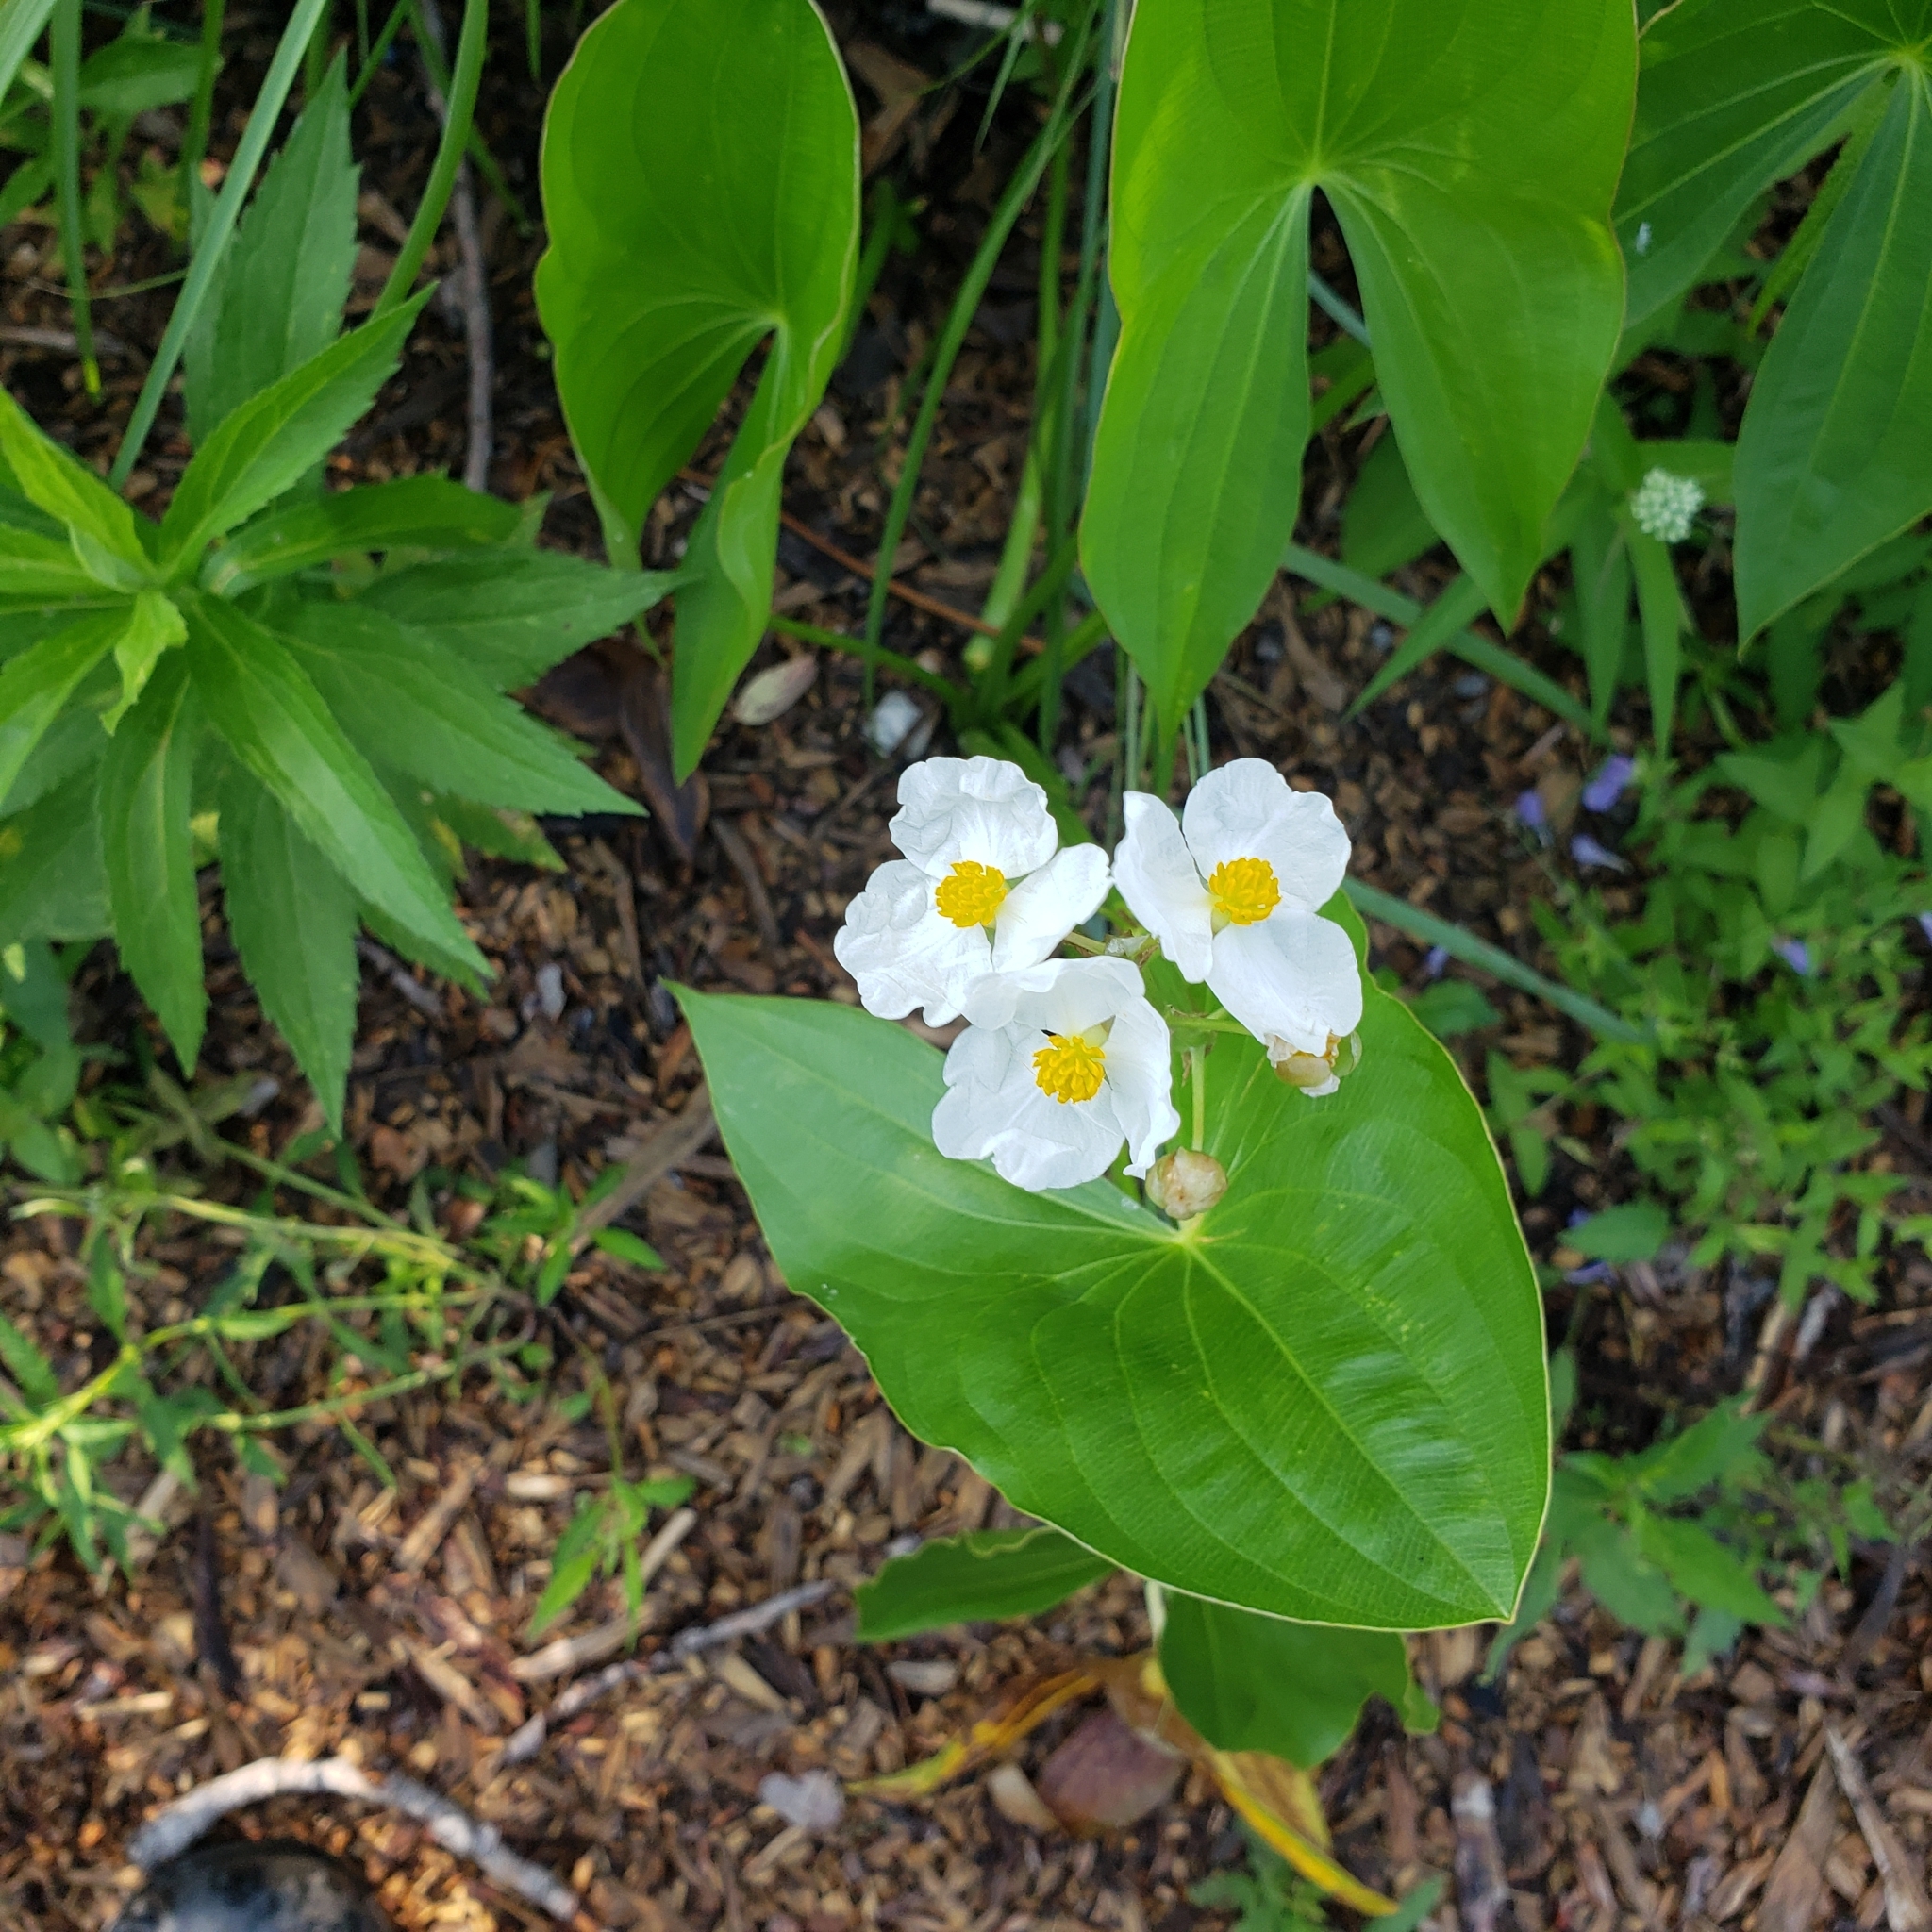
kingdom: Plantae
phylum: Tracheophyta
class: Liliopsida
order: Alismatales
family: Alismataceae
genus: Sagittaria
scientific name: Sagittaria latifolia
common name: Duck-potato
